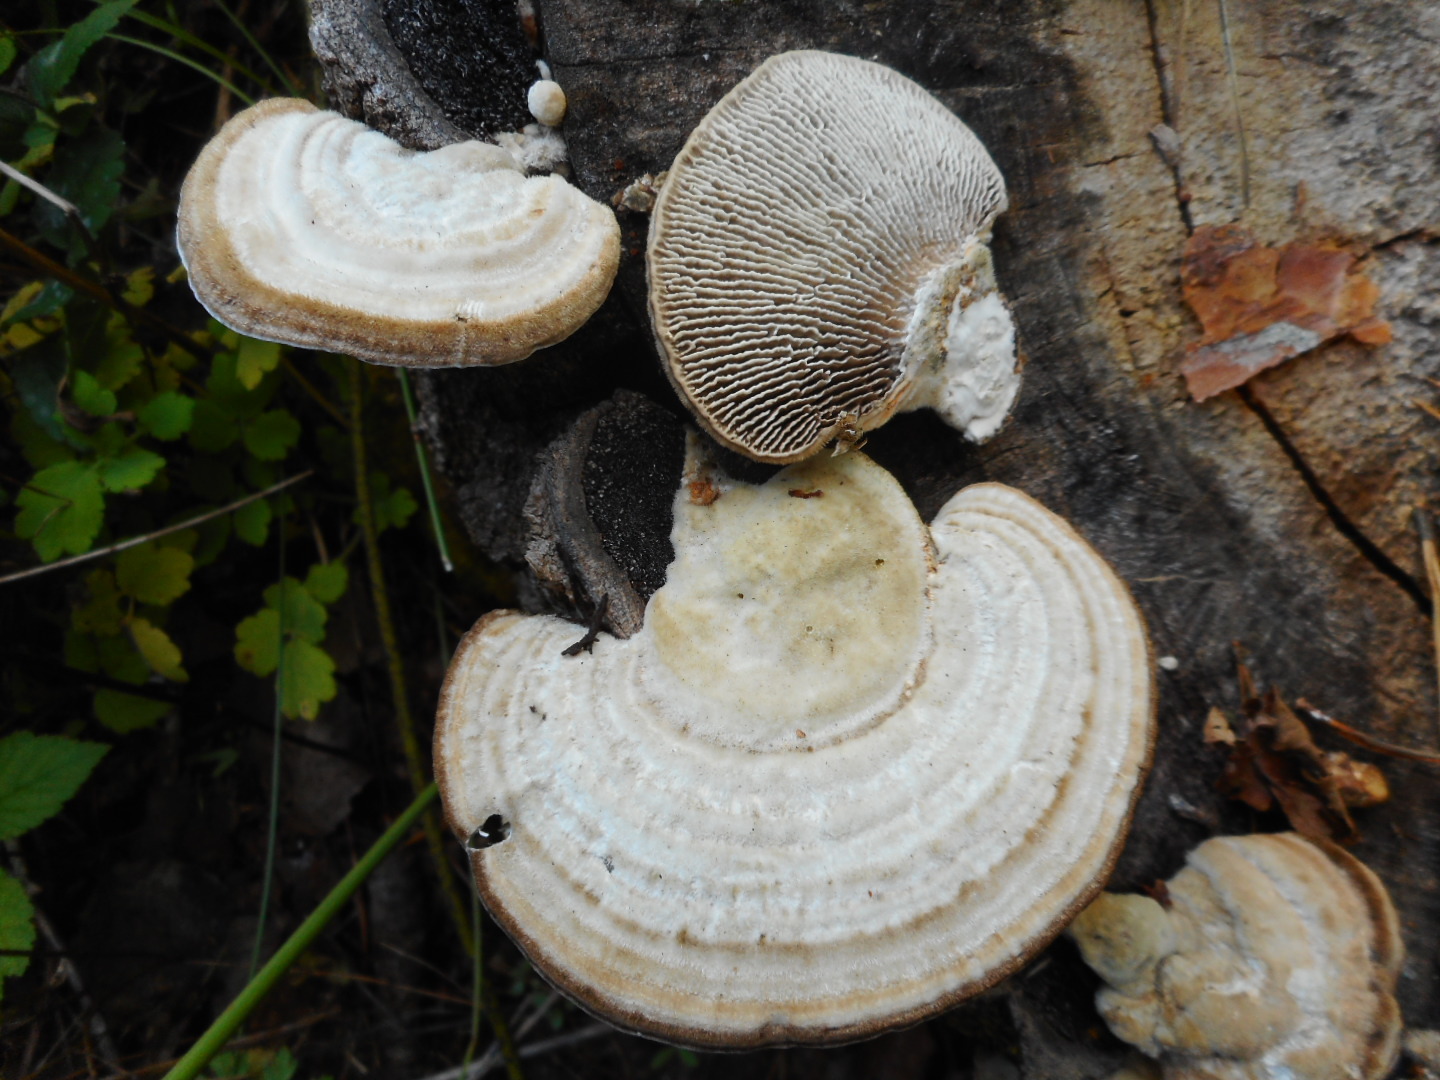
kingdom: Fungi
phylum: Basidiomycota
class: Agaricomycetes
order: Polyporales
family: Polyporaceae
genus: Lenzites
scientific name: Lenzites betulinus
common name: Birch mazegill
